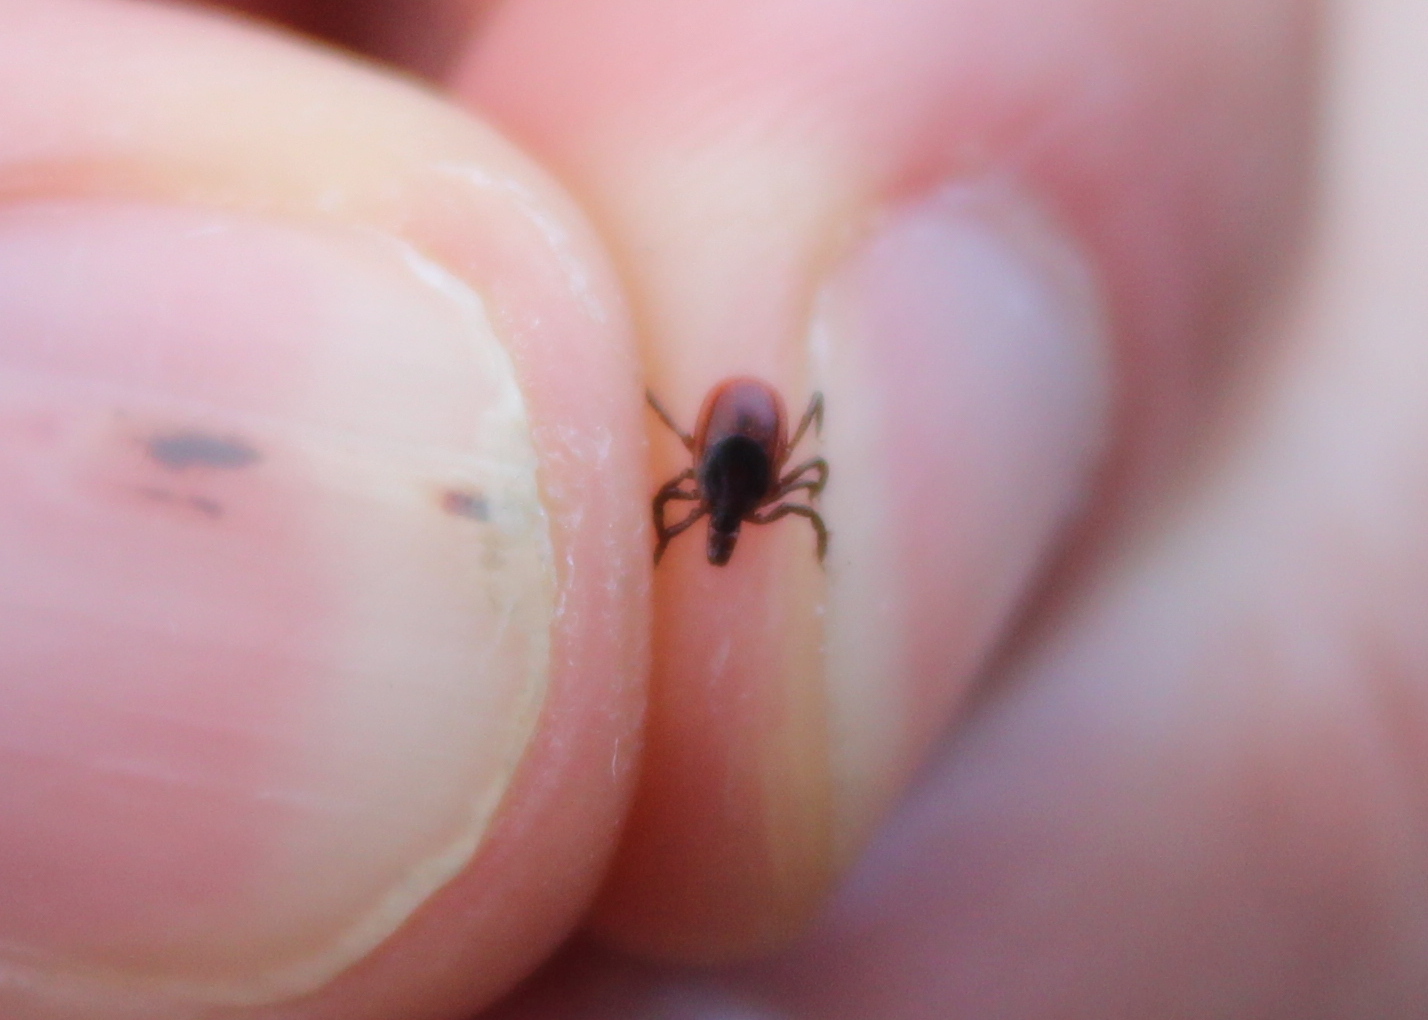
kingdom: Animalia
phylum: Arthropoda
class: Arachnida
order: Ixodida
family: Ixodidae
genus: Ixodes
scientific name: Ixodes scapularis
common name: Black legged tick
